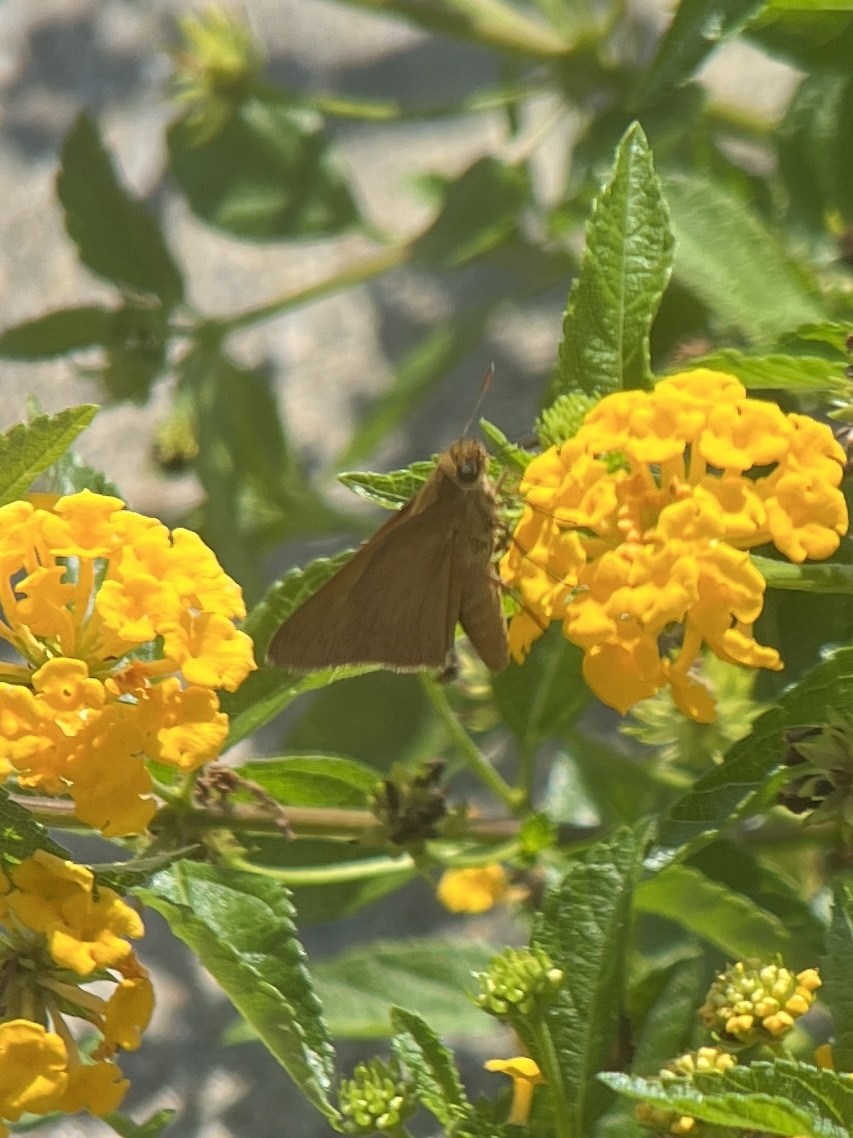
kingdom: Animalia
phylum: Arthropoda
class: Insecta
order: Lepidoptera
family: Hesperiidae
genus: Euphyes
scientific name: Euphyes pilatka
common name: Palatka skipper
